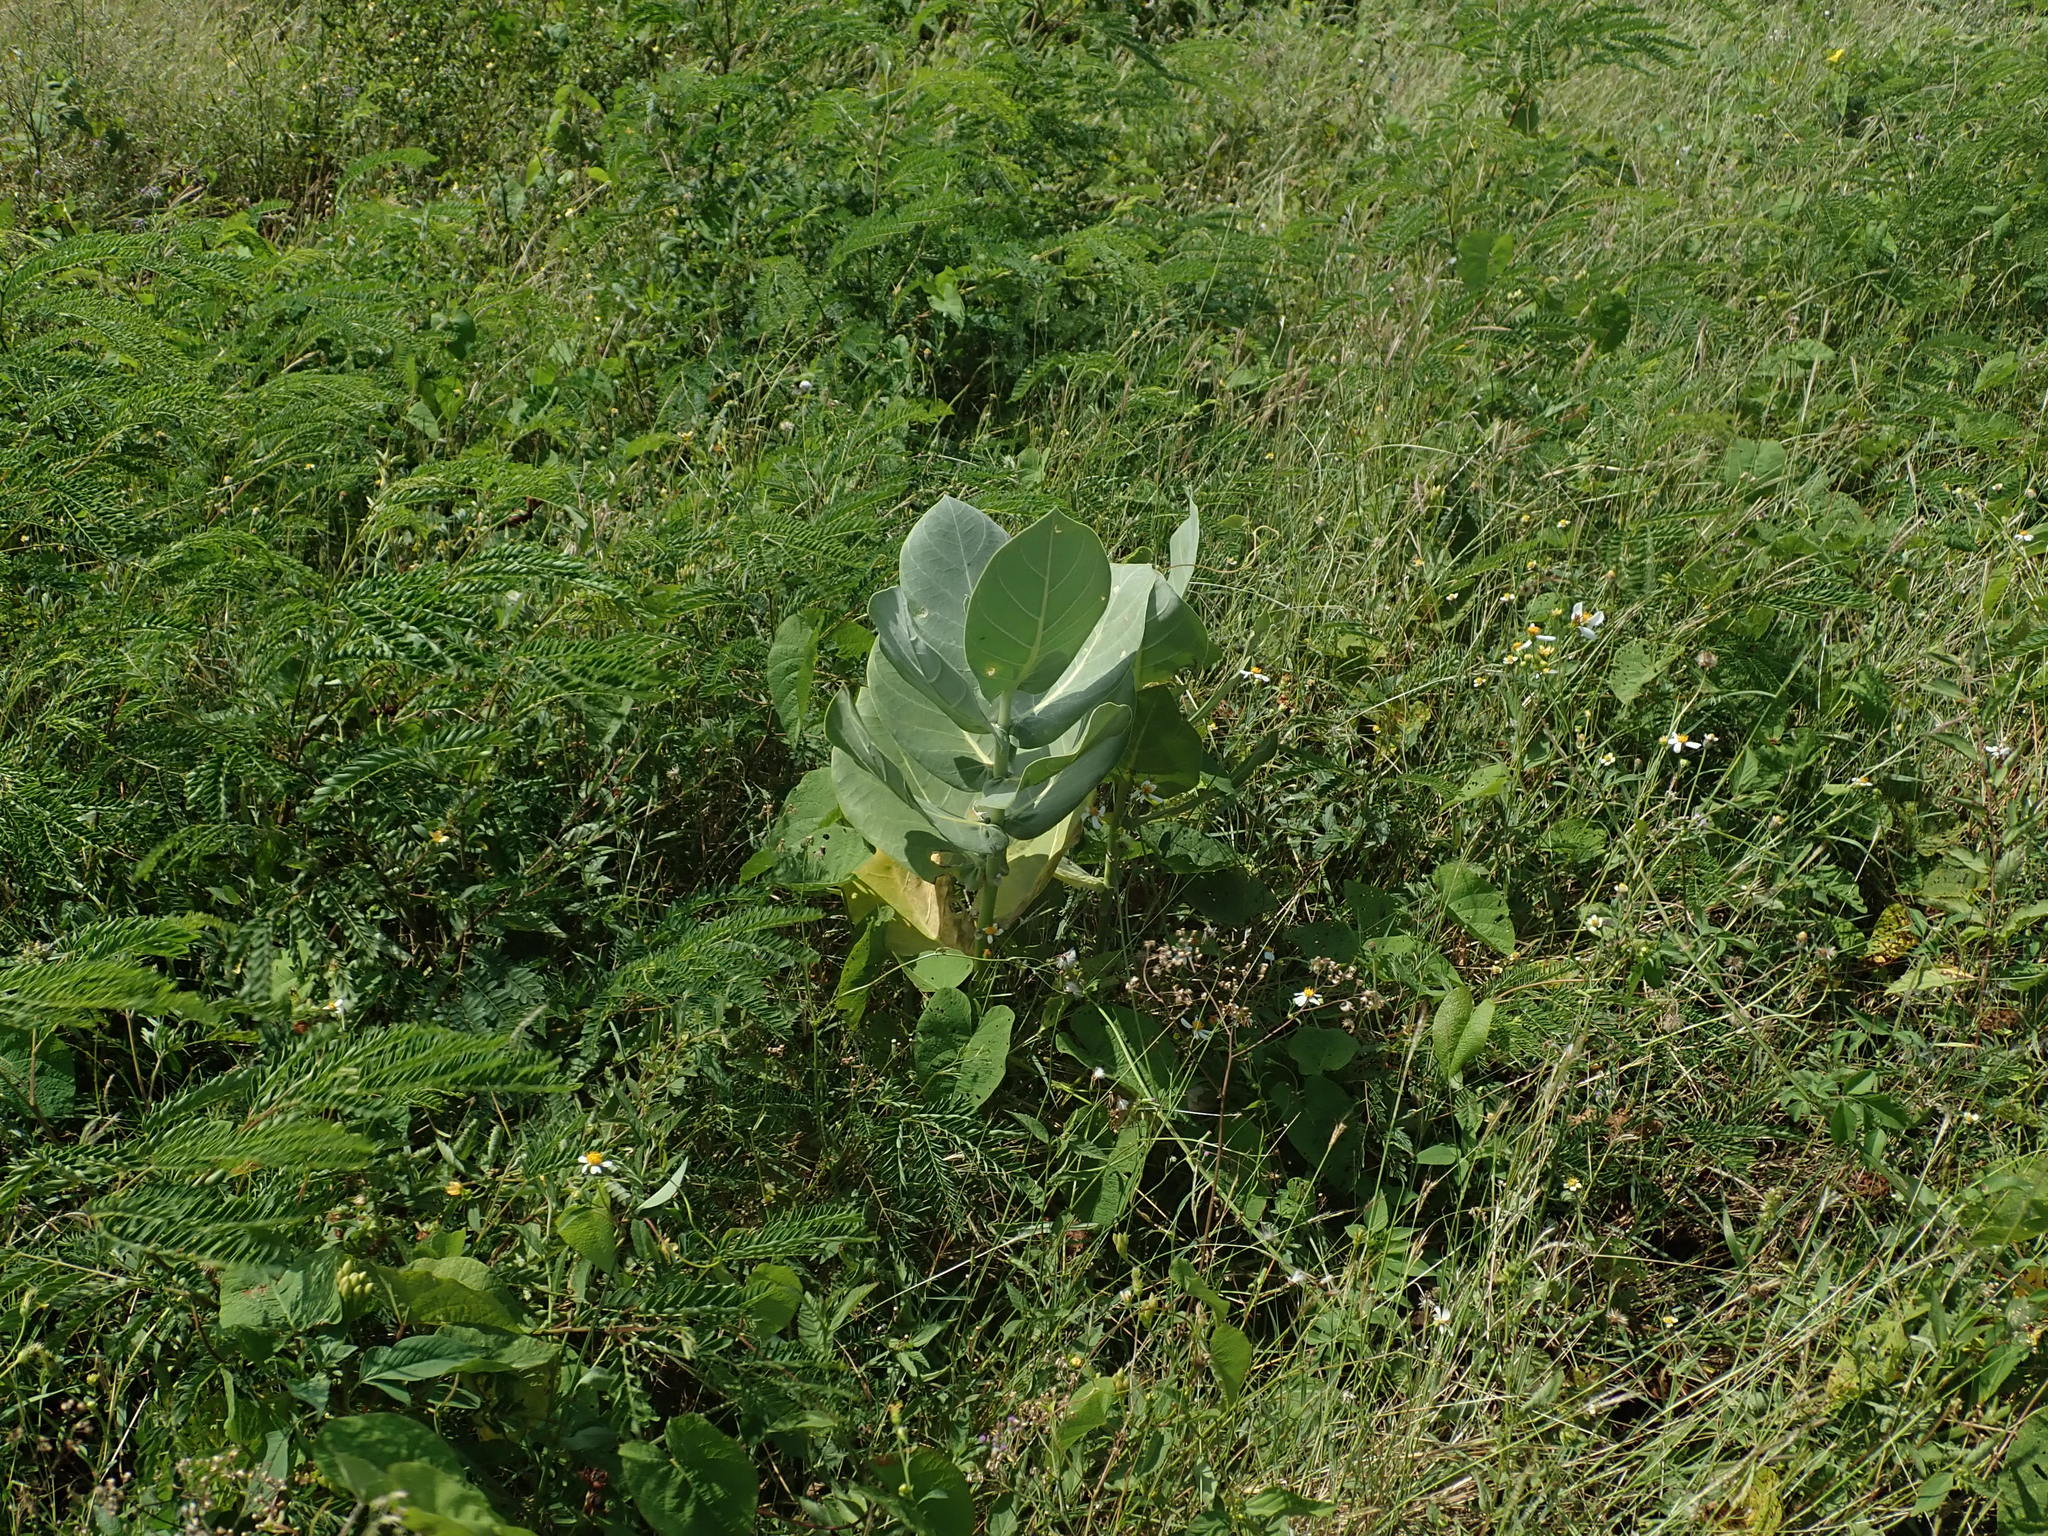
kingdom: Plantae
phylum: Tracheophyta
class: Magnoliopsida
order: Gentianales
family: Apocynaceae
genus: Calotropis
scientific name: Calotropis procera
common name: Roostertree
